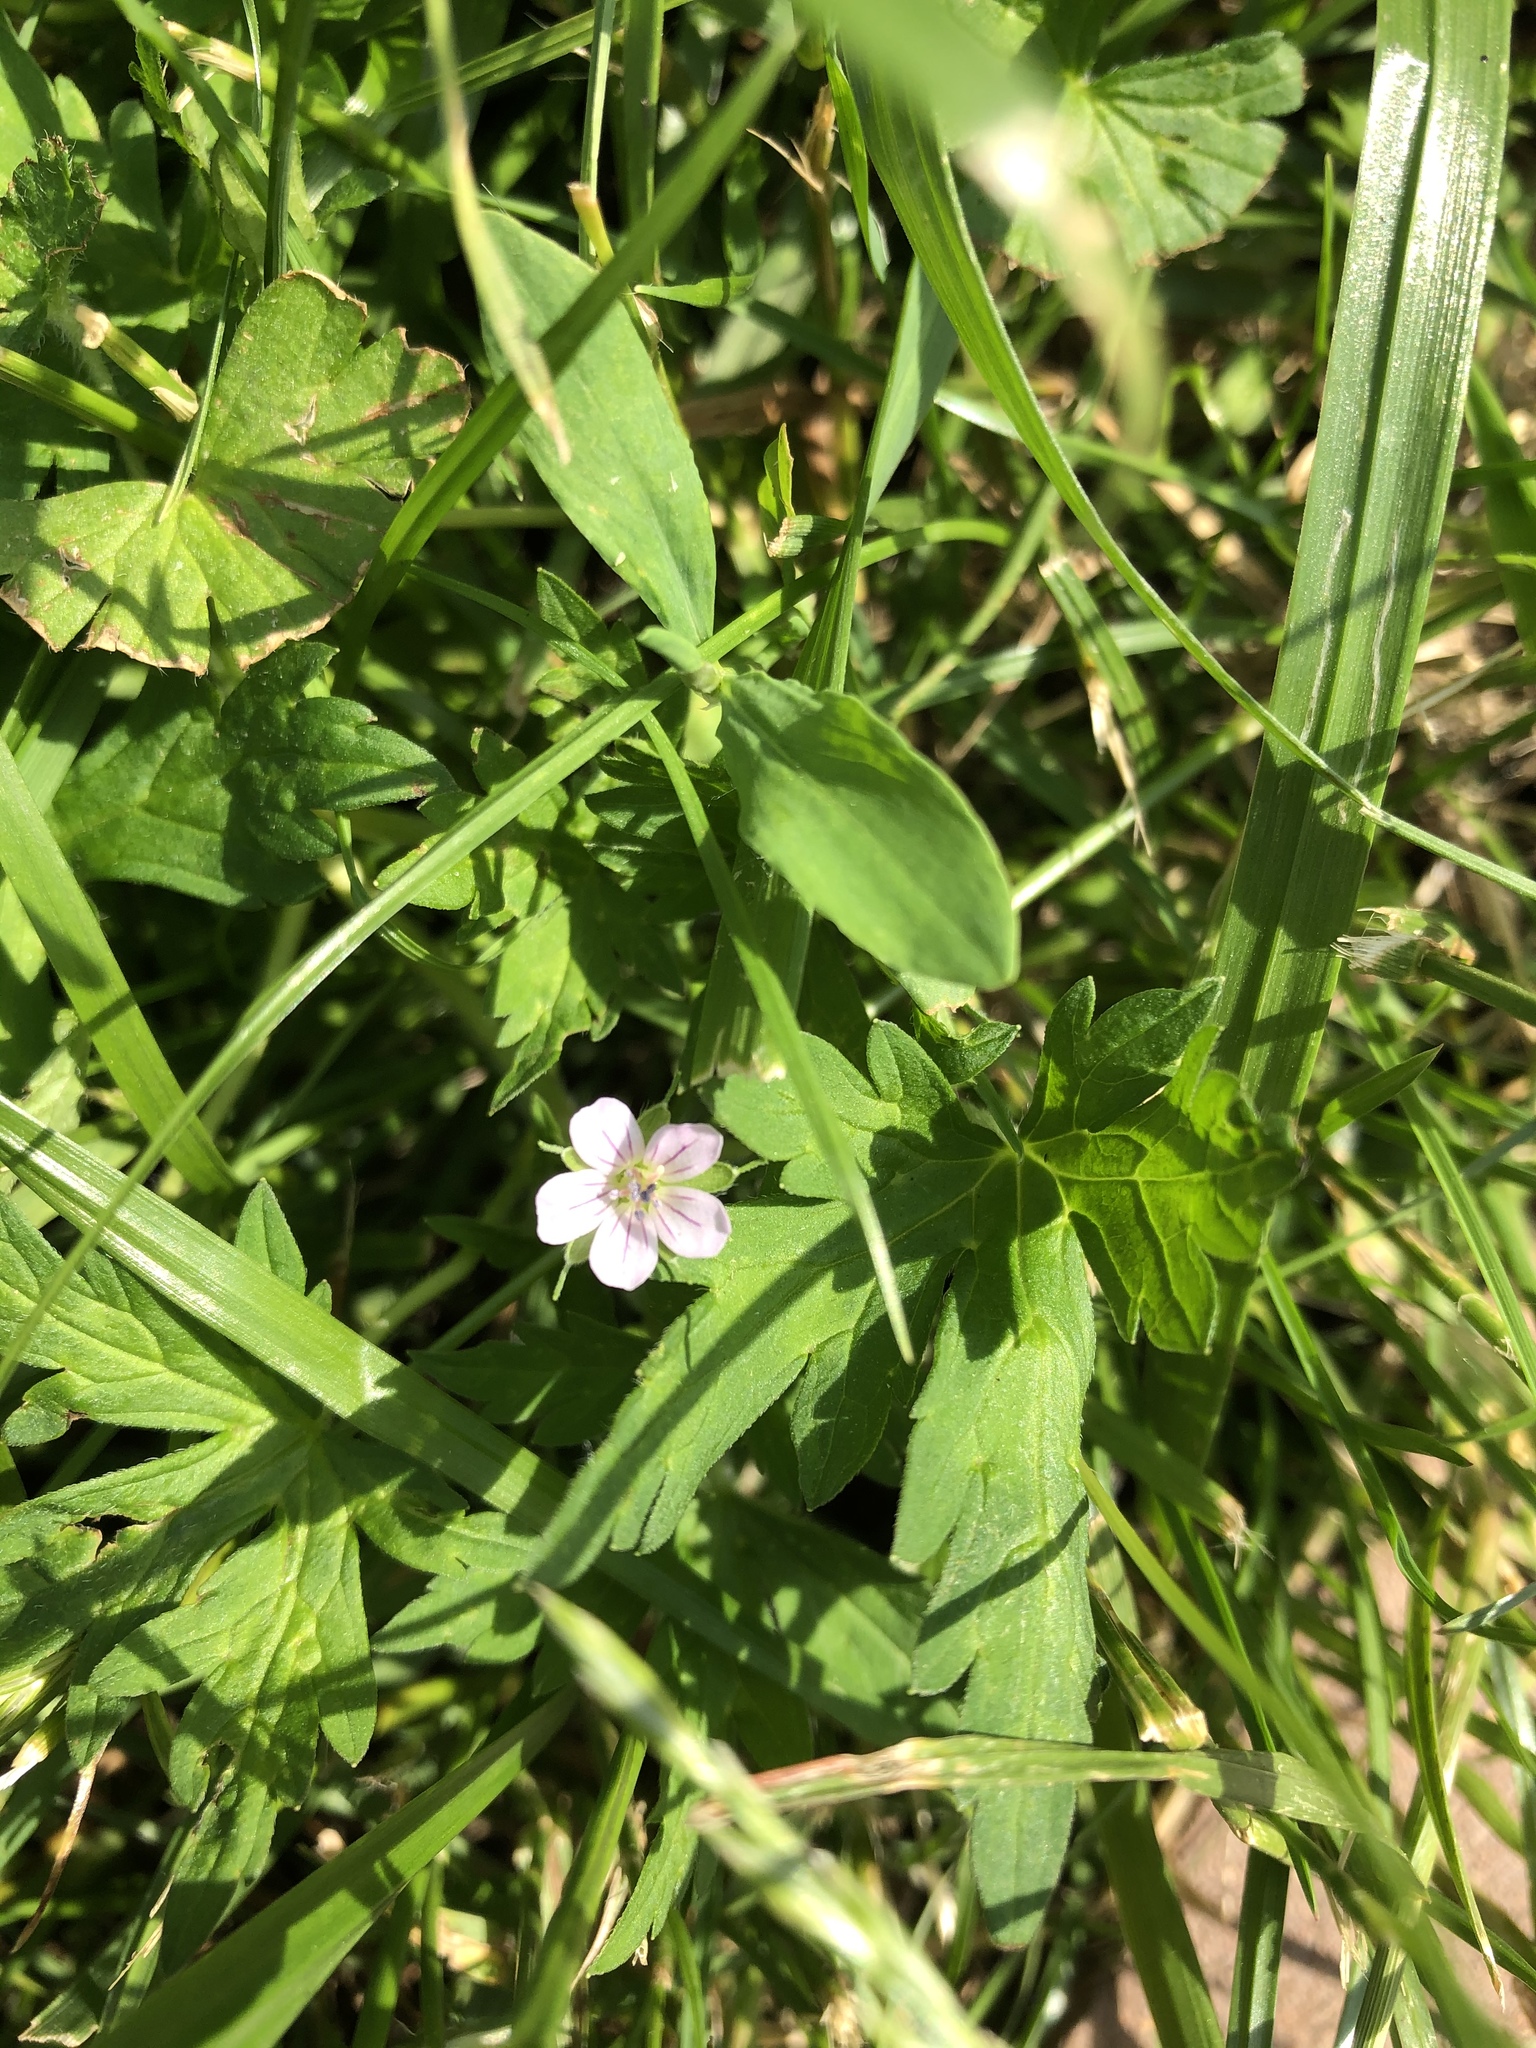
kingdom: Plantae
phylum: Tracheophyta
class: Magnoliopsida
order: Geraniales
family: Geraniaceae
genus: Geranium
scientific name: Geranium sibiricum
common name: Siberian crane's-bill
